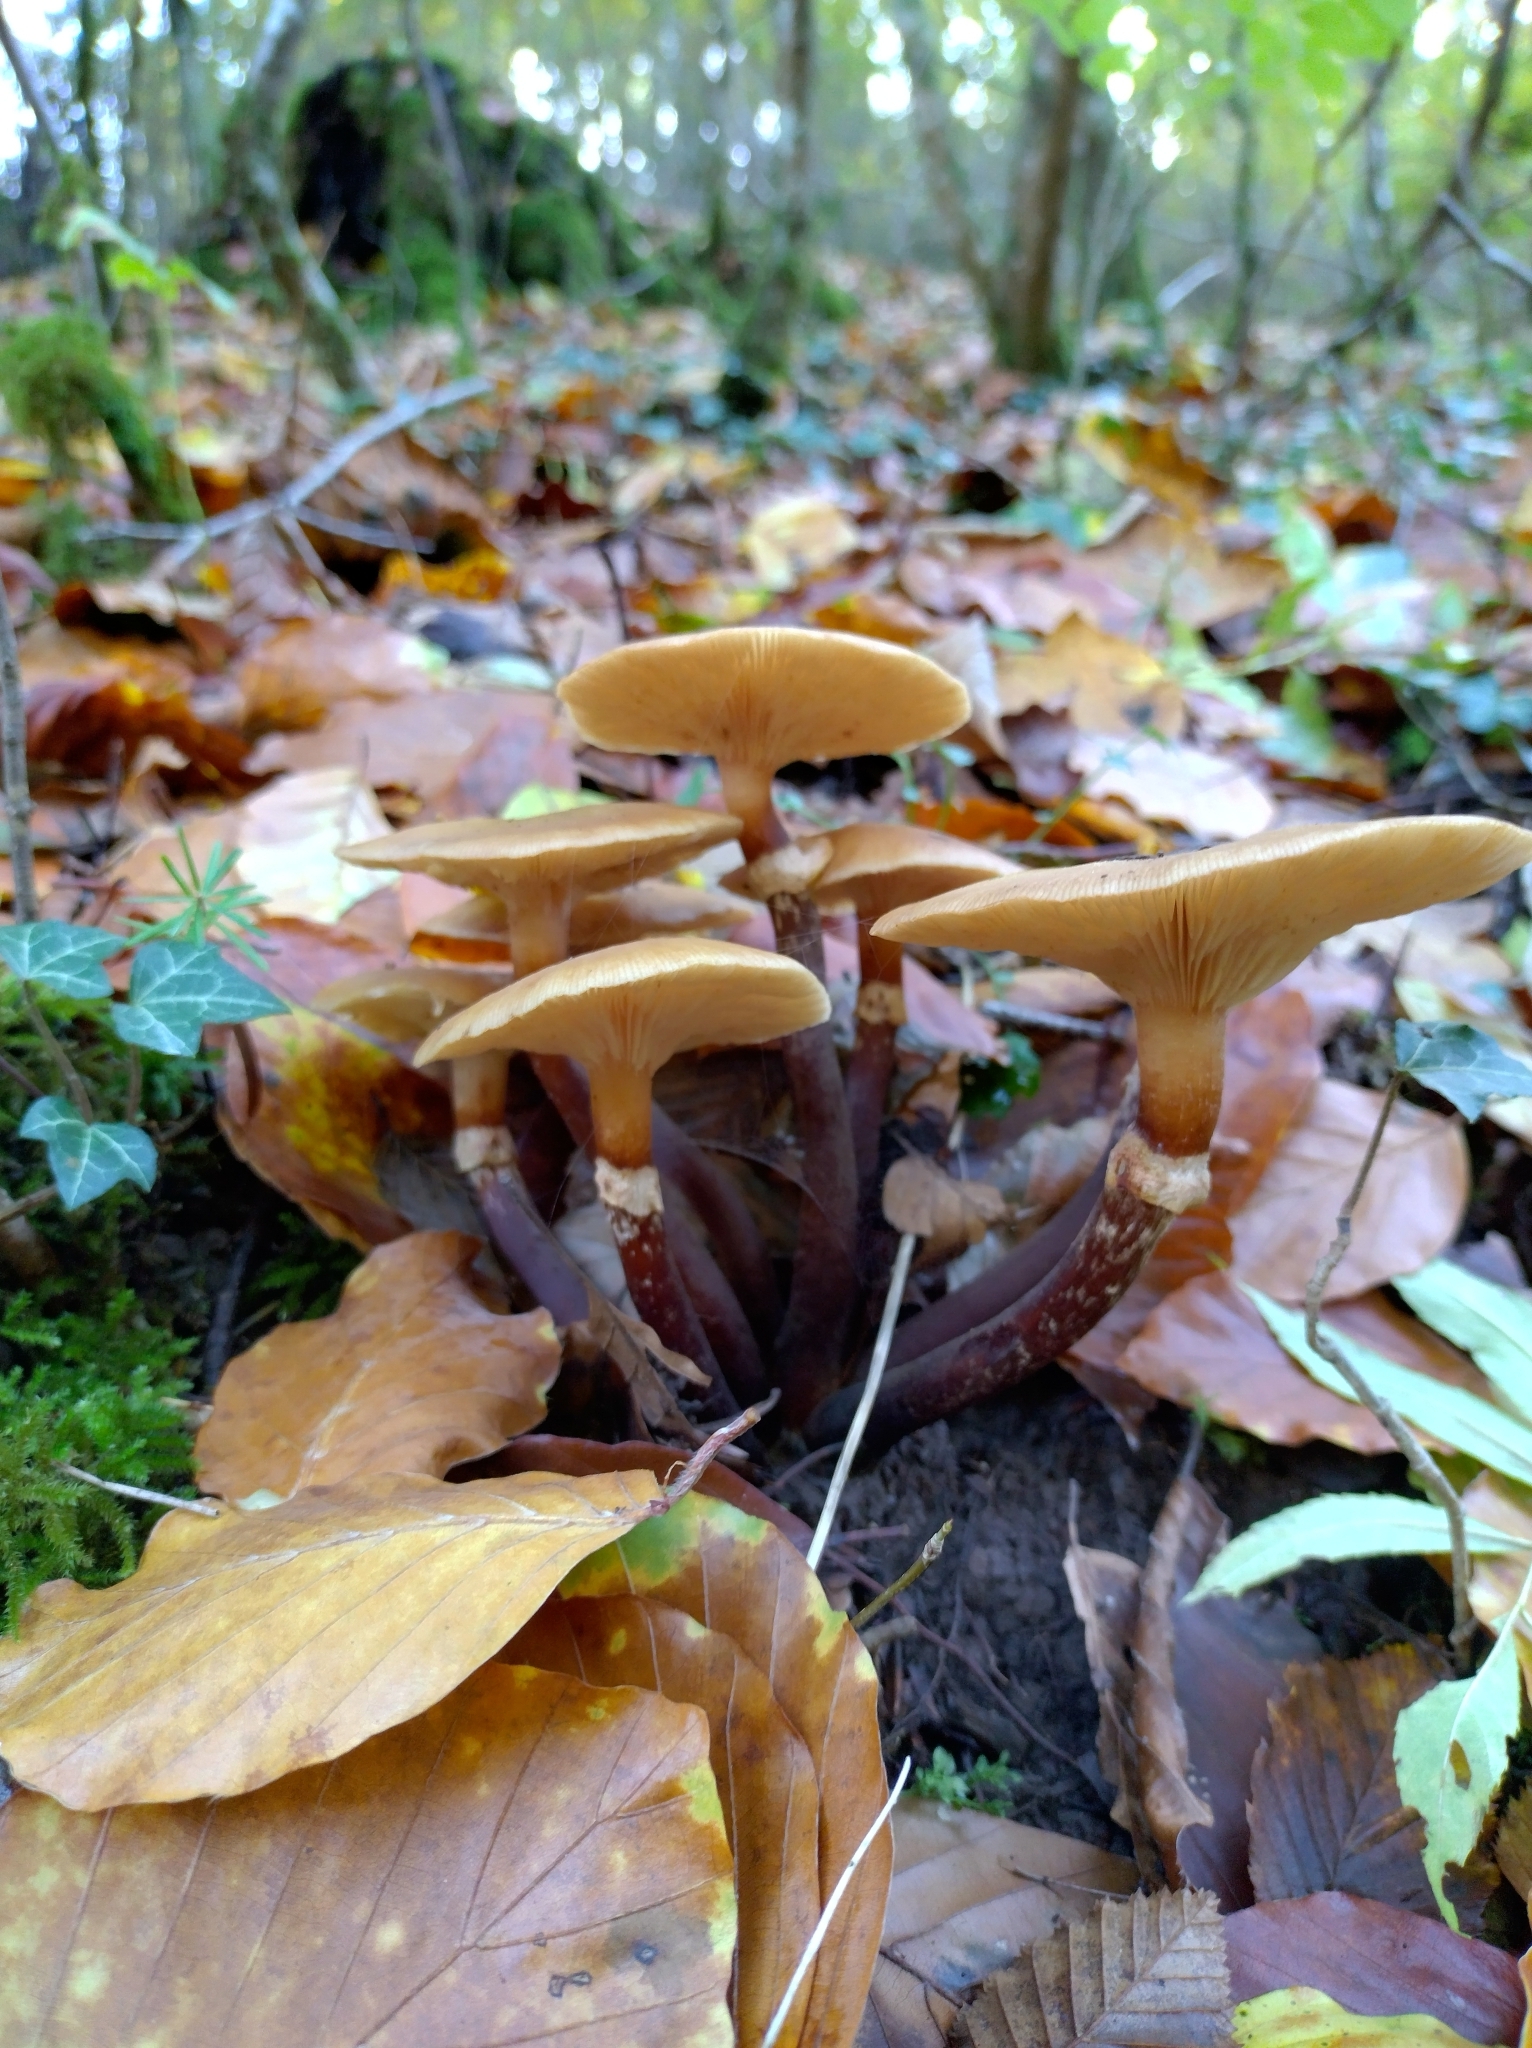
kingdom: Fungi
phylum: Basidiomycota
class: Agaricomycetes
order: Agaricales
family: Physalacriaceae
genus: Armillaria
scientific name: Armillaria mellea
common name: Honey fungus
